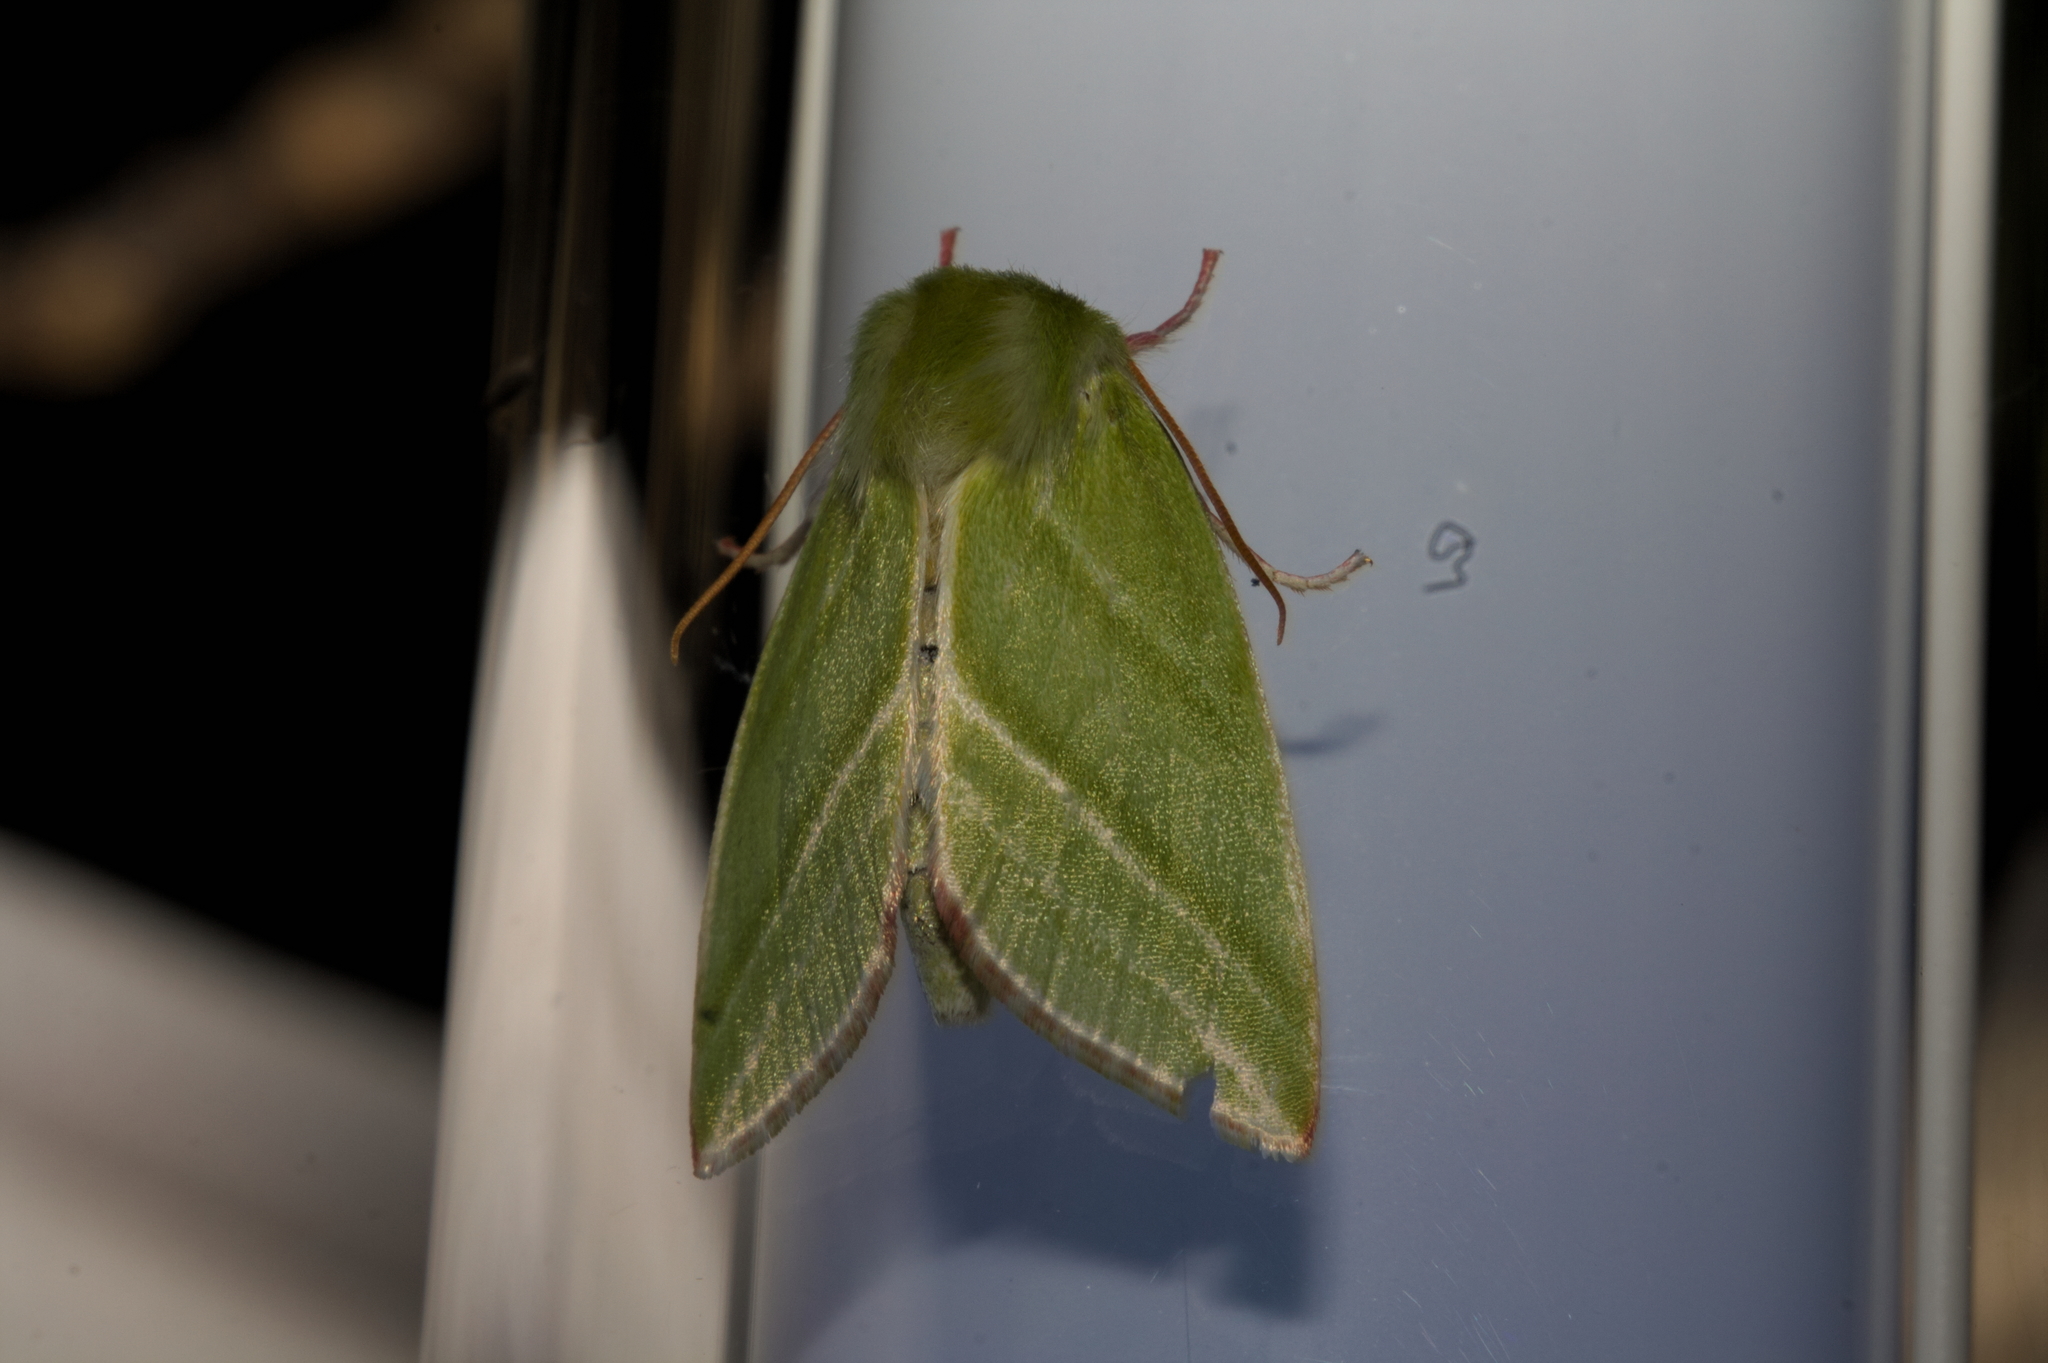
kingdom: Animalia
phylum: Arthropoda
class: Insecta
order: Lepidoptera
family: Nolidae
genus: Pseudoips
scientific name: Pseudoips prasinana
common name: Green silver-lines
